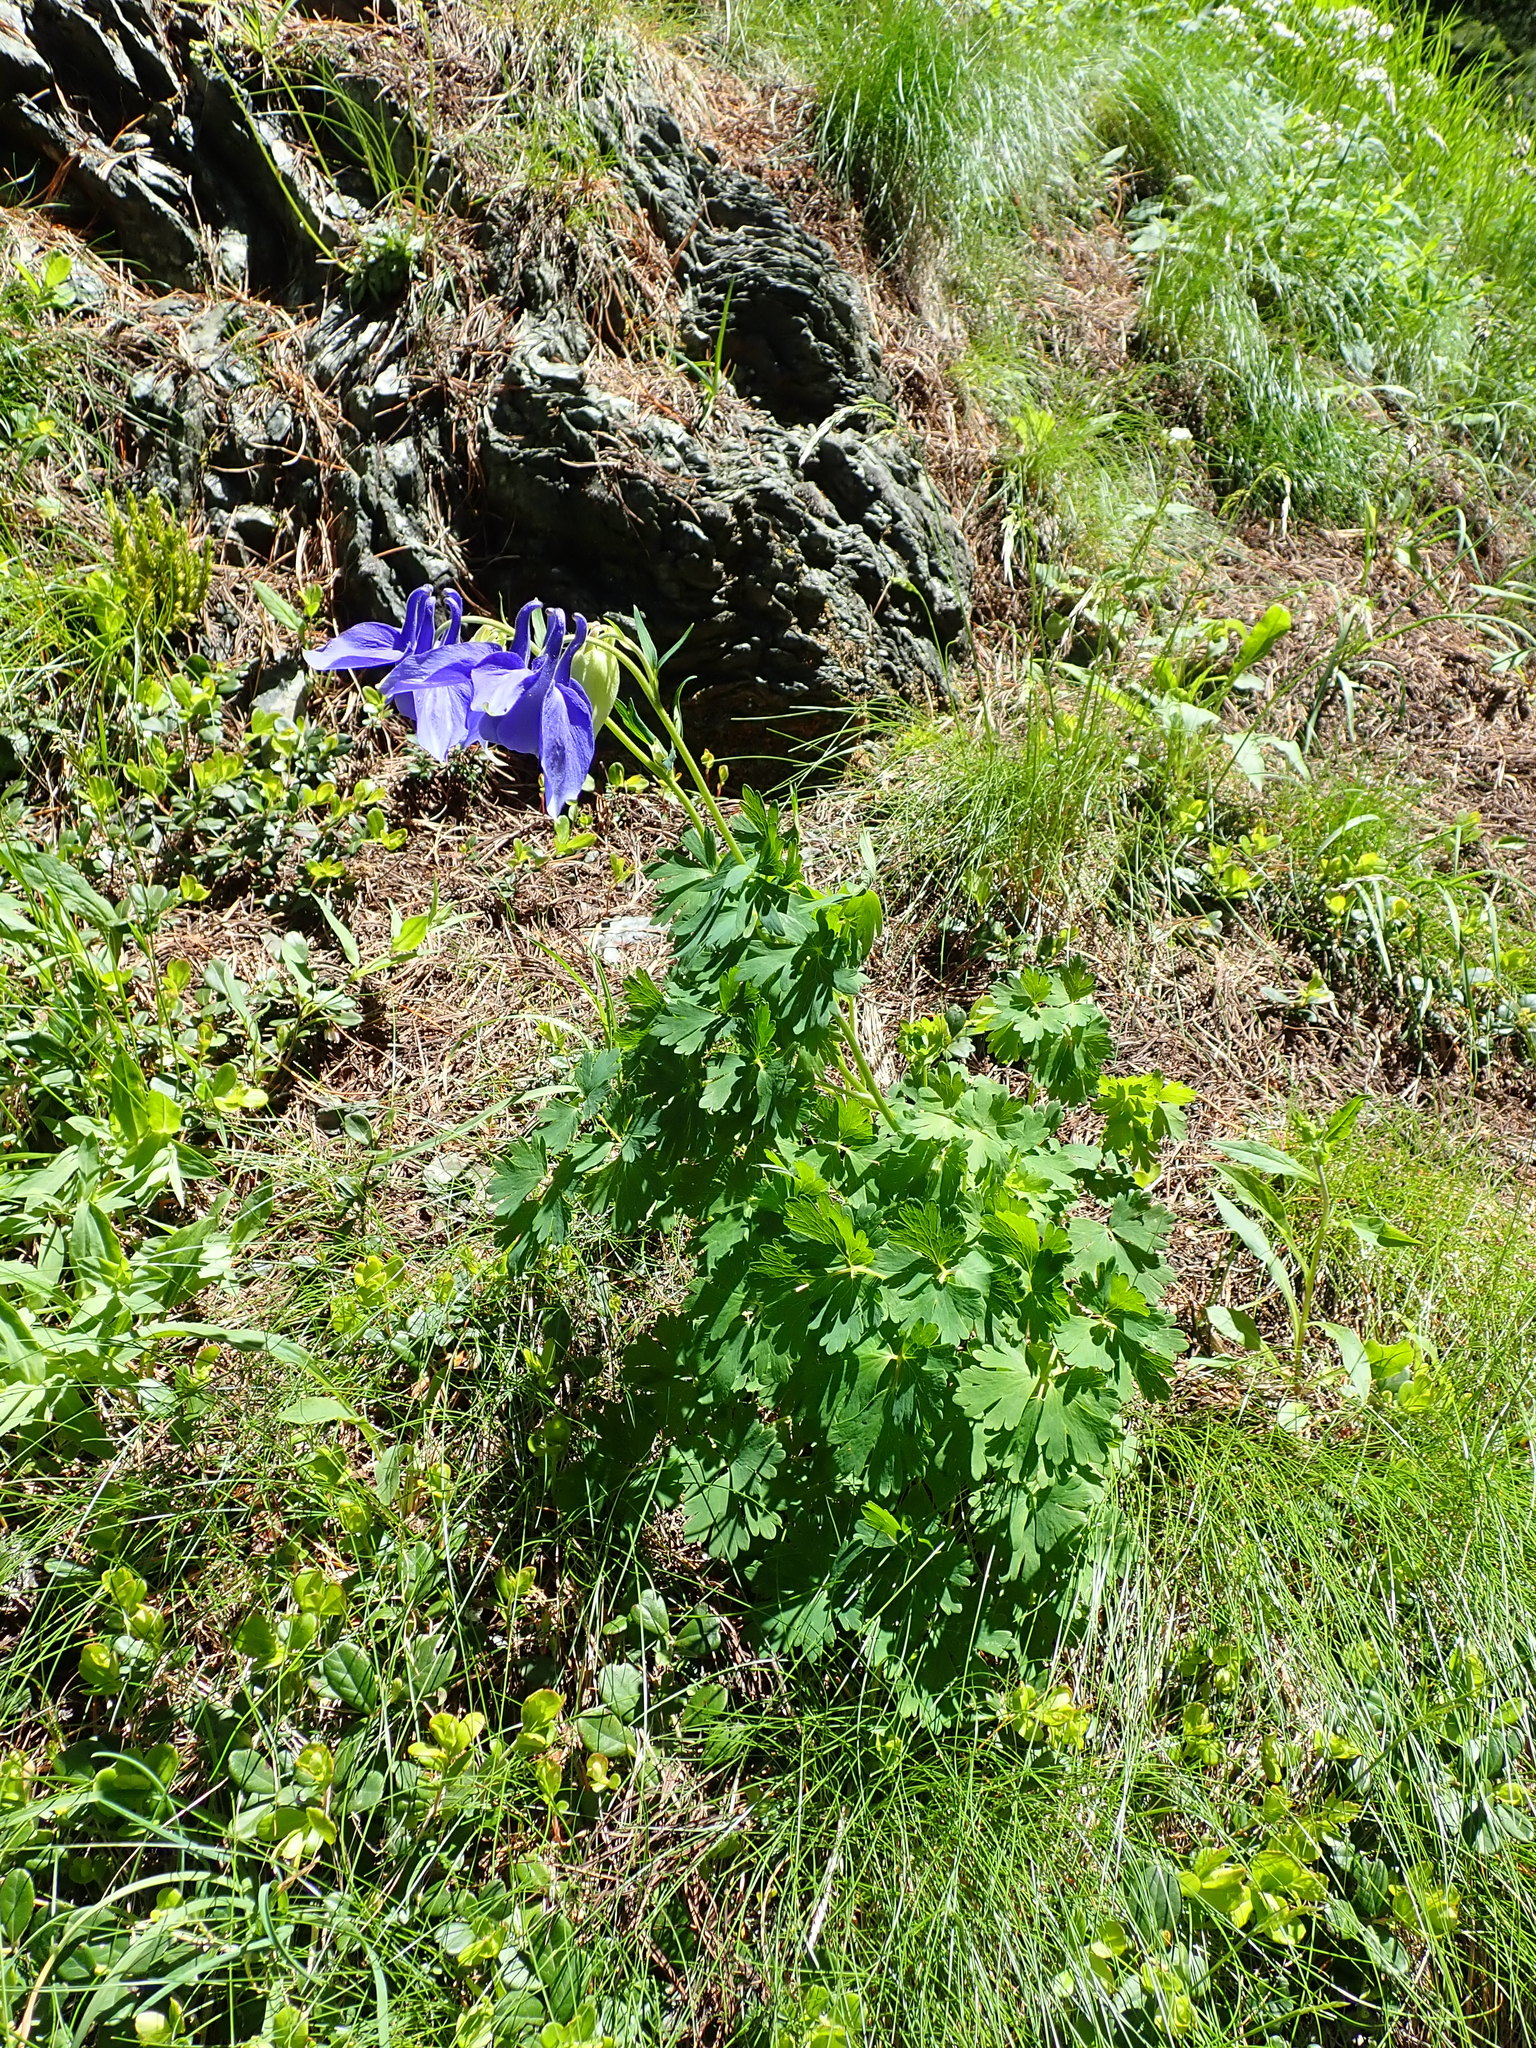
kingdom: Plantae
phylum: Tracheophyta
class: Magnoliopsida
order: Ranunculales
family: Ranunculaceae
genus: Aquilegia
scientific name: Aquilegia vulgaris
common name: Columbine
